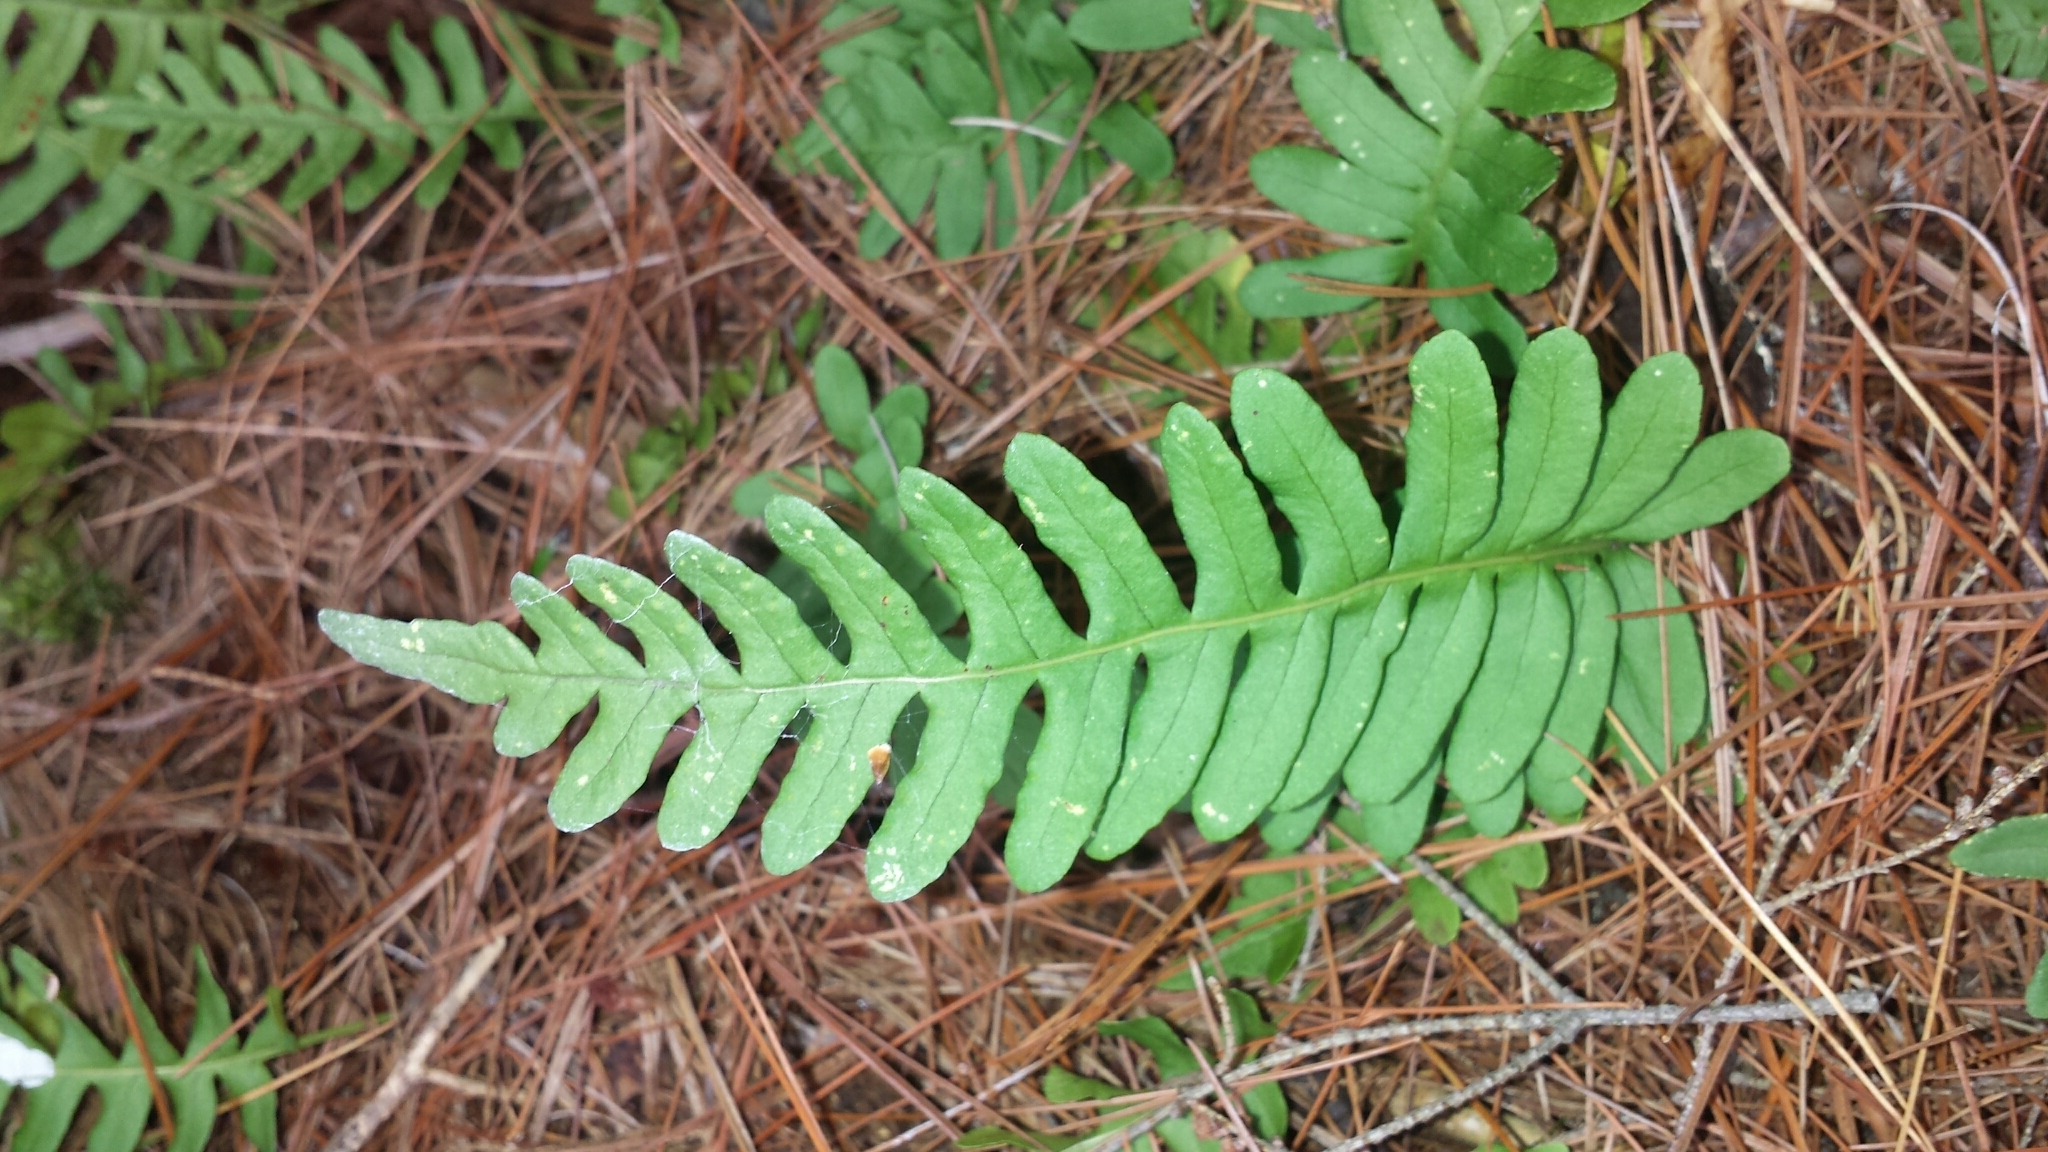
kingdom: Plantae
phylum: Tracheophyta
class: Polypodiopsida
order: Polypodiales
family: Polypodiaceae
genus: Polypodium
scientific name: Polypodium virginianum
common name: American wall fern
